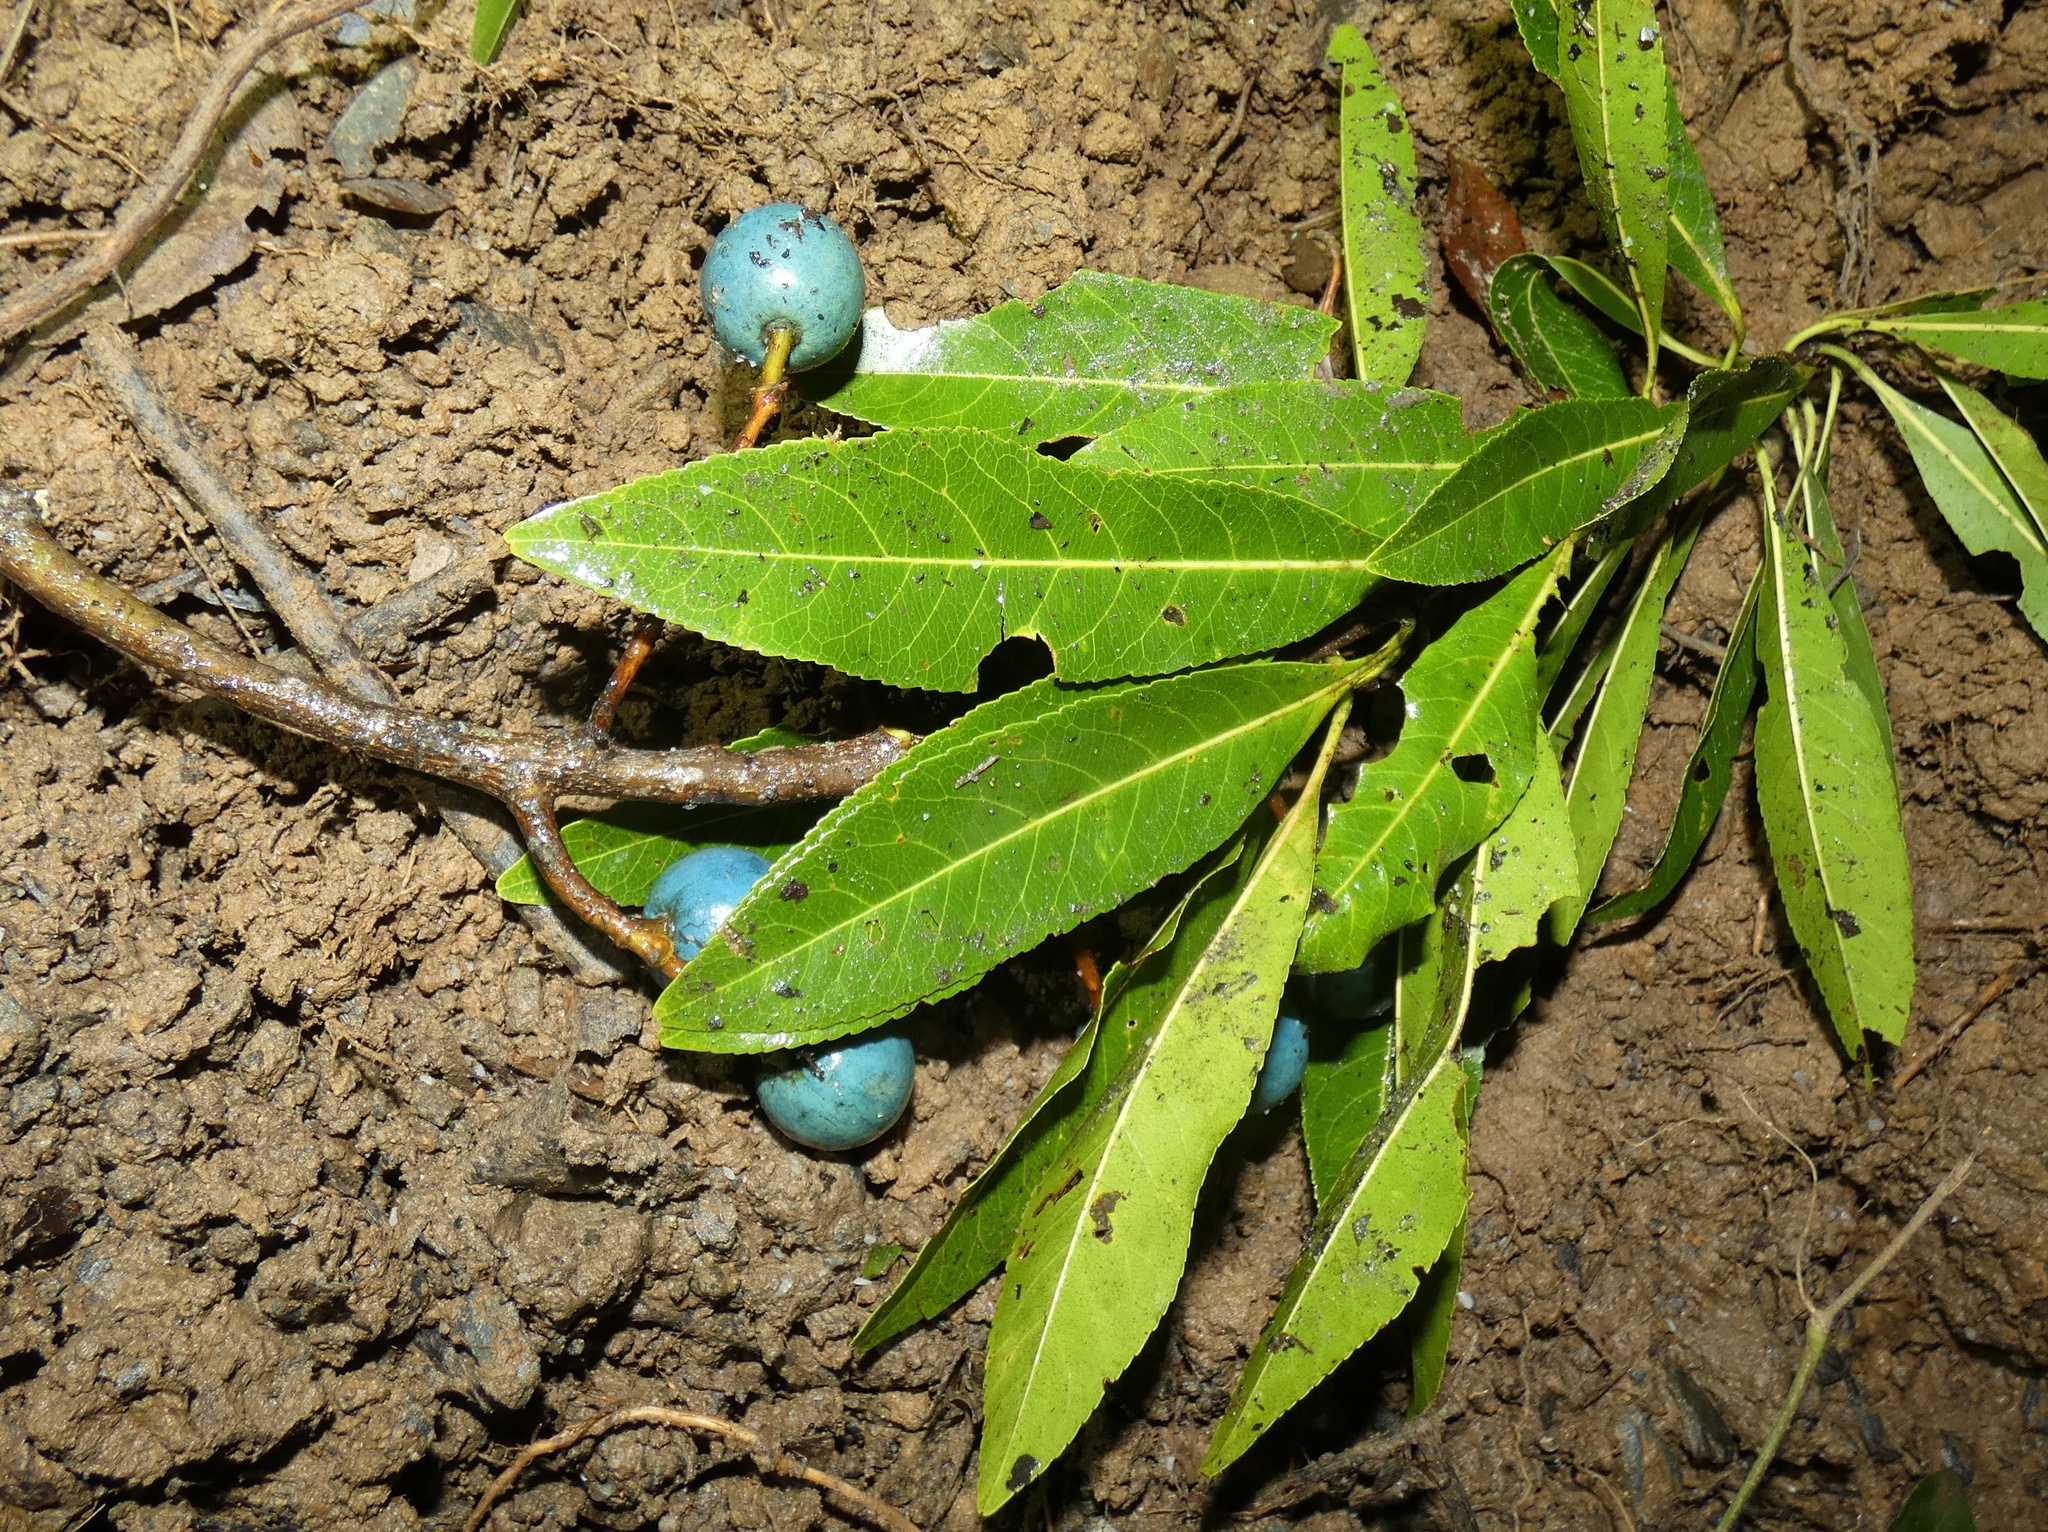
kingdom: Plantae
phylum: Tracheophyta
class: Magnoliopsida
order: Oxalidales
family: Elaeocarpaceae
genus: Elaeocarpus
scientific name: Elaeocarpus angustifolius
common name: Blue marble tree
